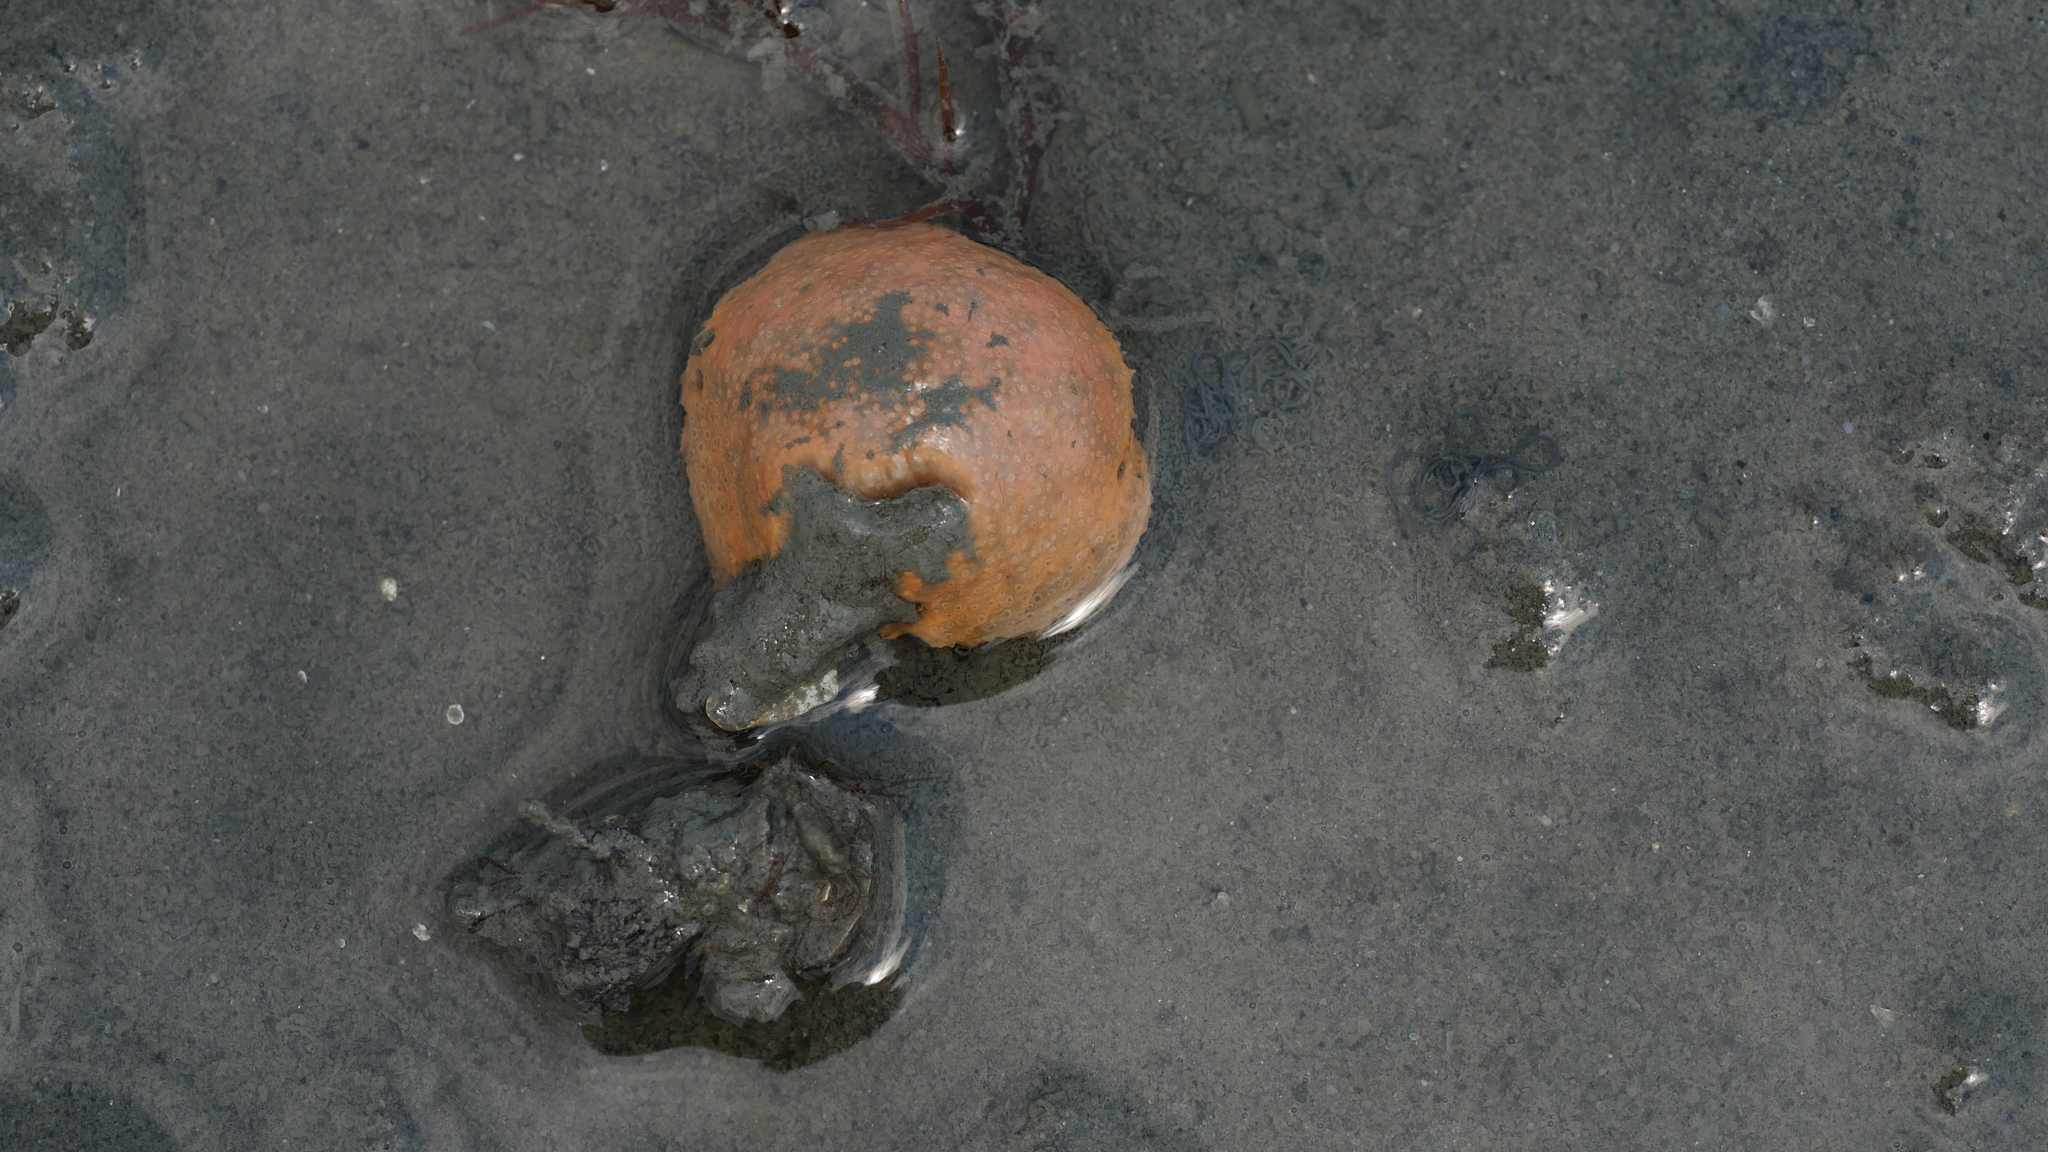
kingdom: Animalia
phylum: Chordata
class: Ascidiacea
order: Aplousobranchia
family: Polyclinidae
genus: Aplidium
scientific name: Aplidium stellatum
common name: Atlantic sea pork
